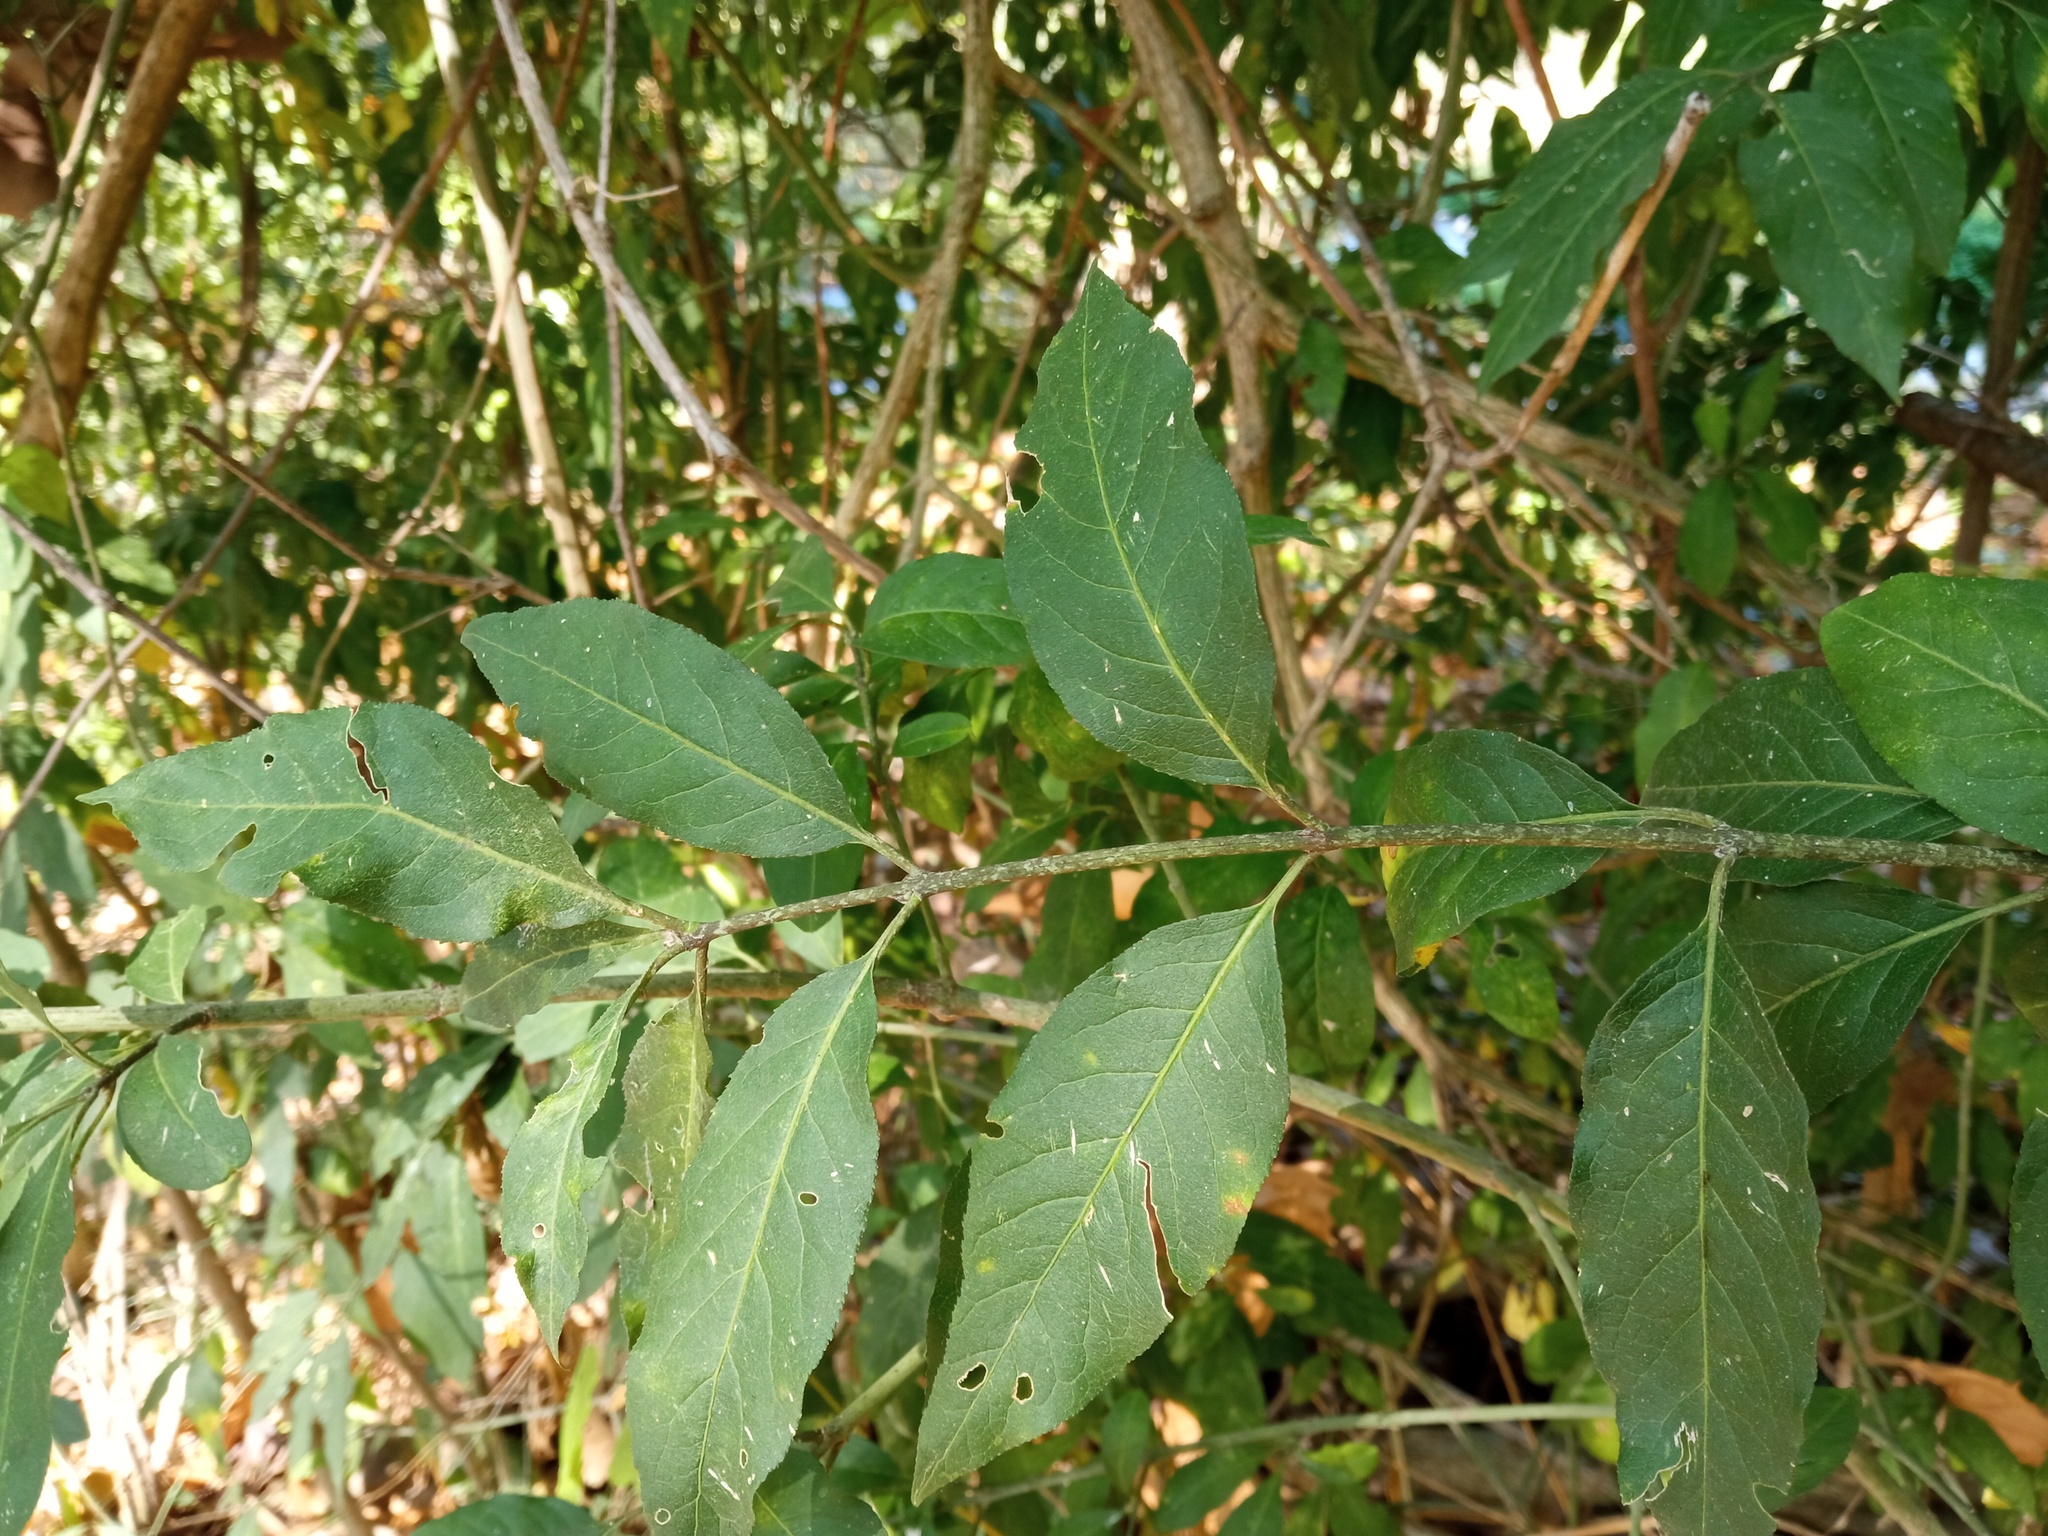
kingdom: Plantae
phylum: Tracheophyta
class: Magnoliopsida
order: Celastrales
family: Celastraceae
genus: Euonymus
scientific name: Euonymus europaeus
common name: Spindle
